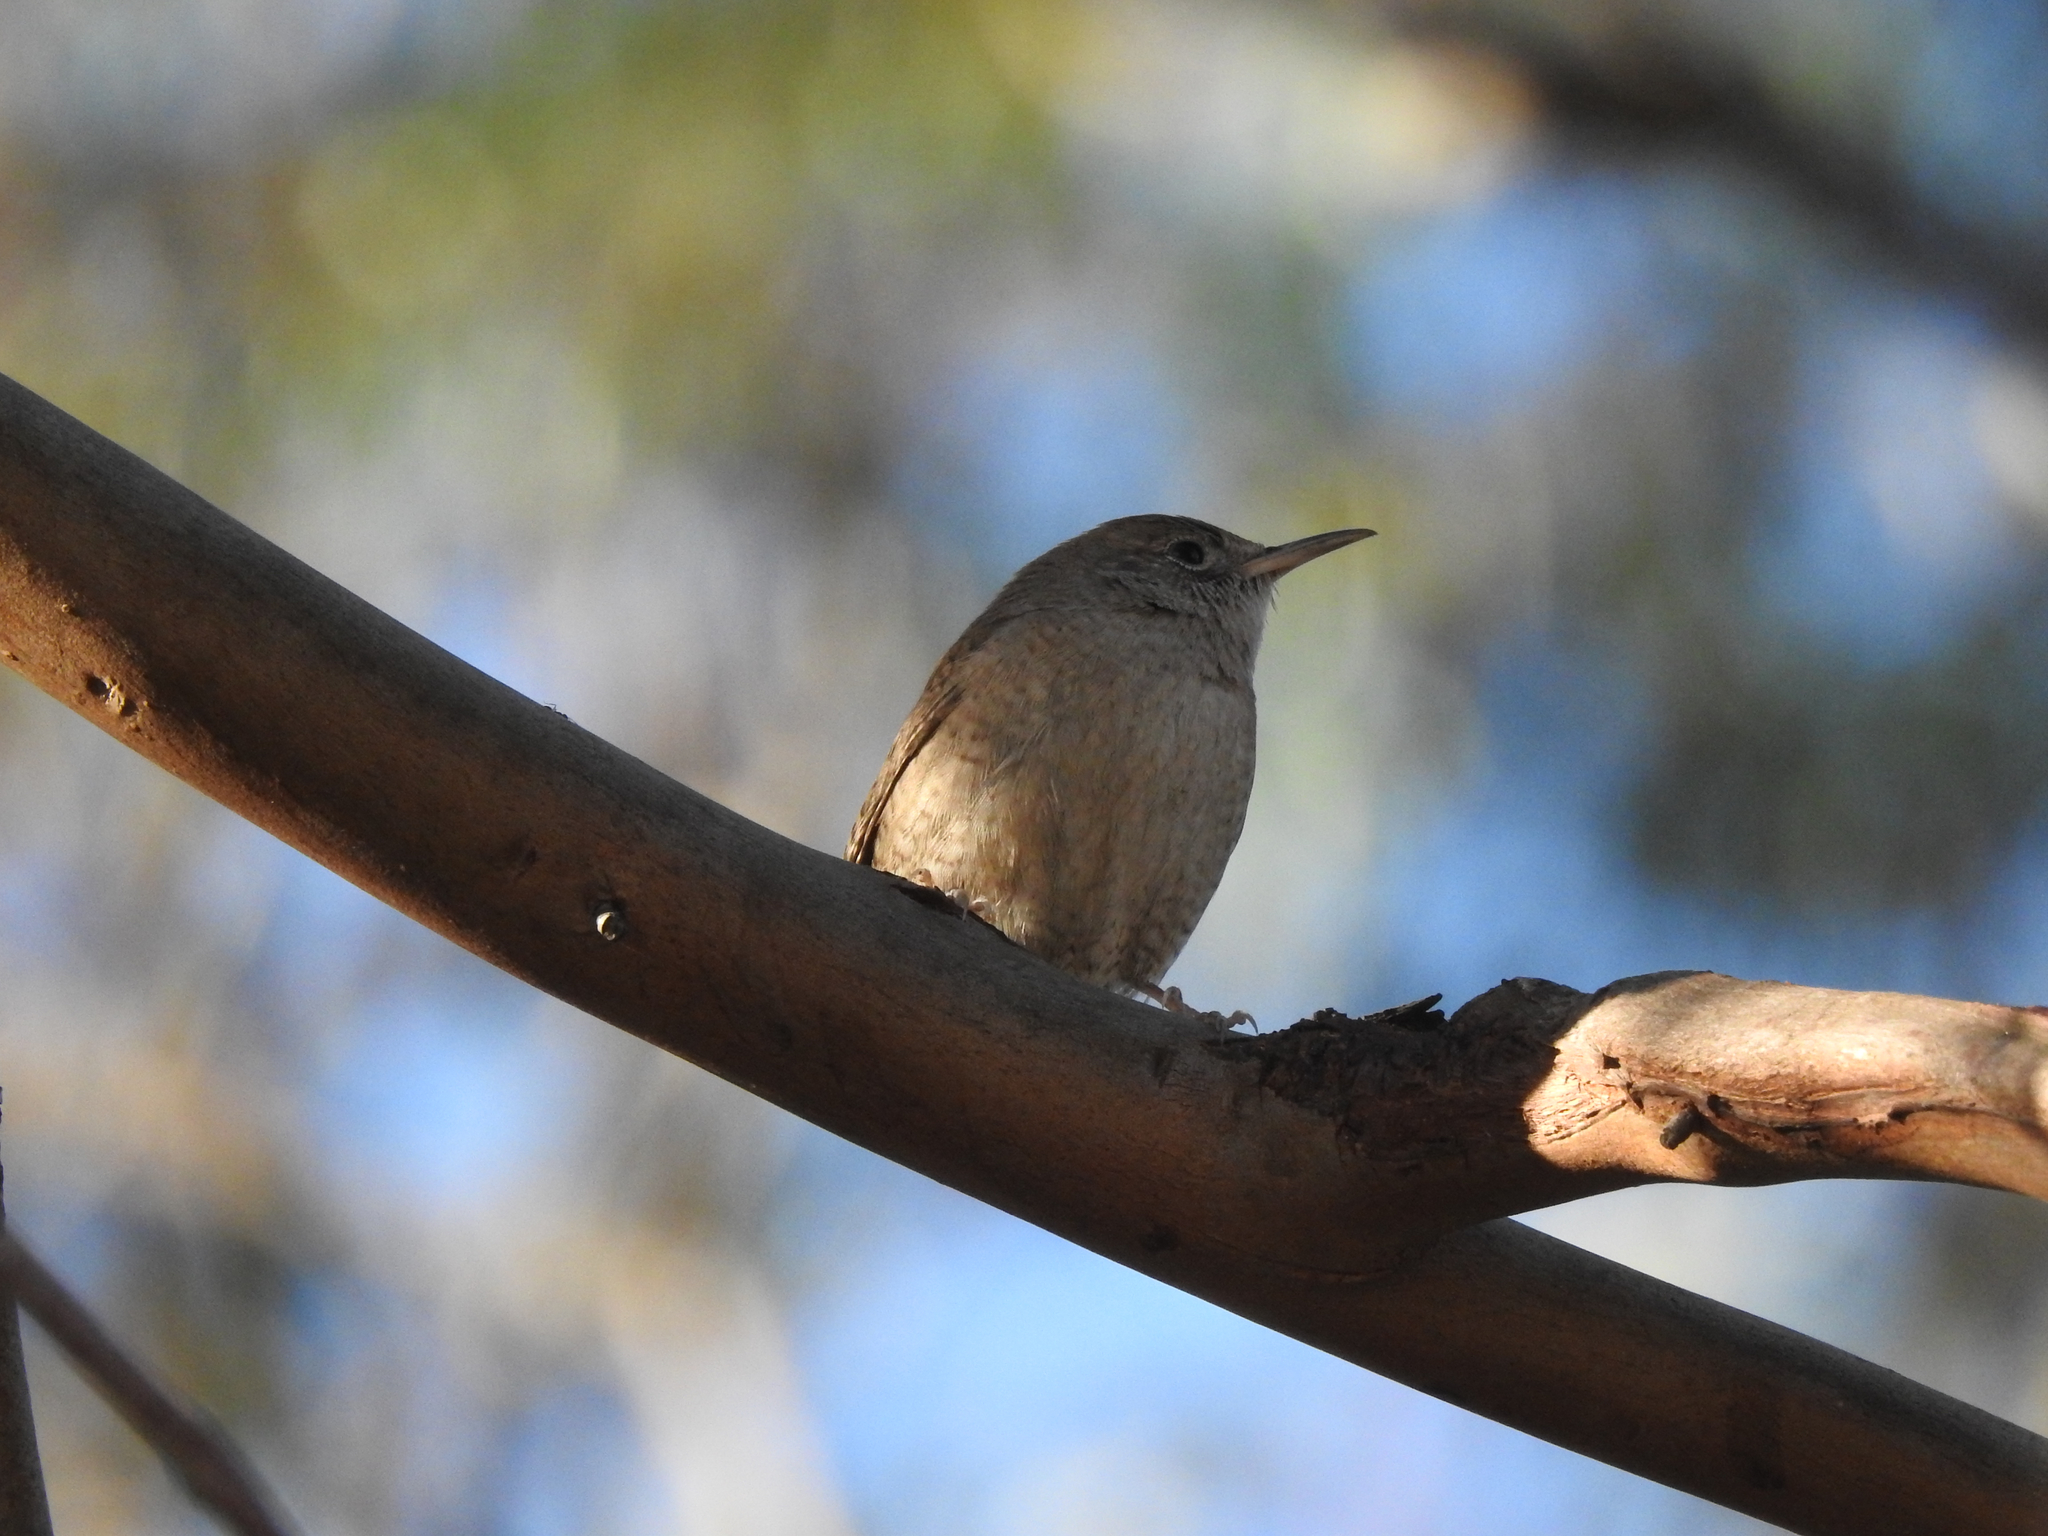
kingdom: Animalia
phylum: Chordata
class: Aves
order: Passeriformes
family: Troglodytidae
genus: Troglodytes
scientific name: Troglodytes aedon
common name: House wren
